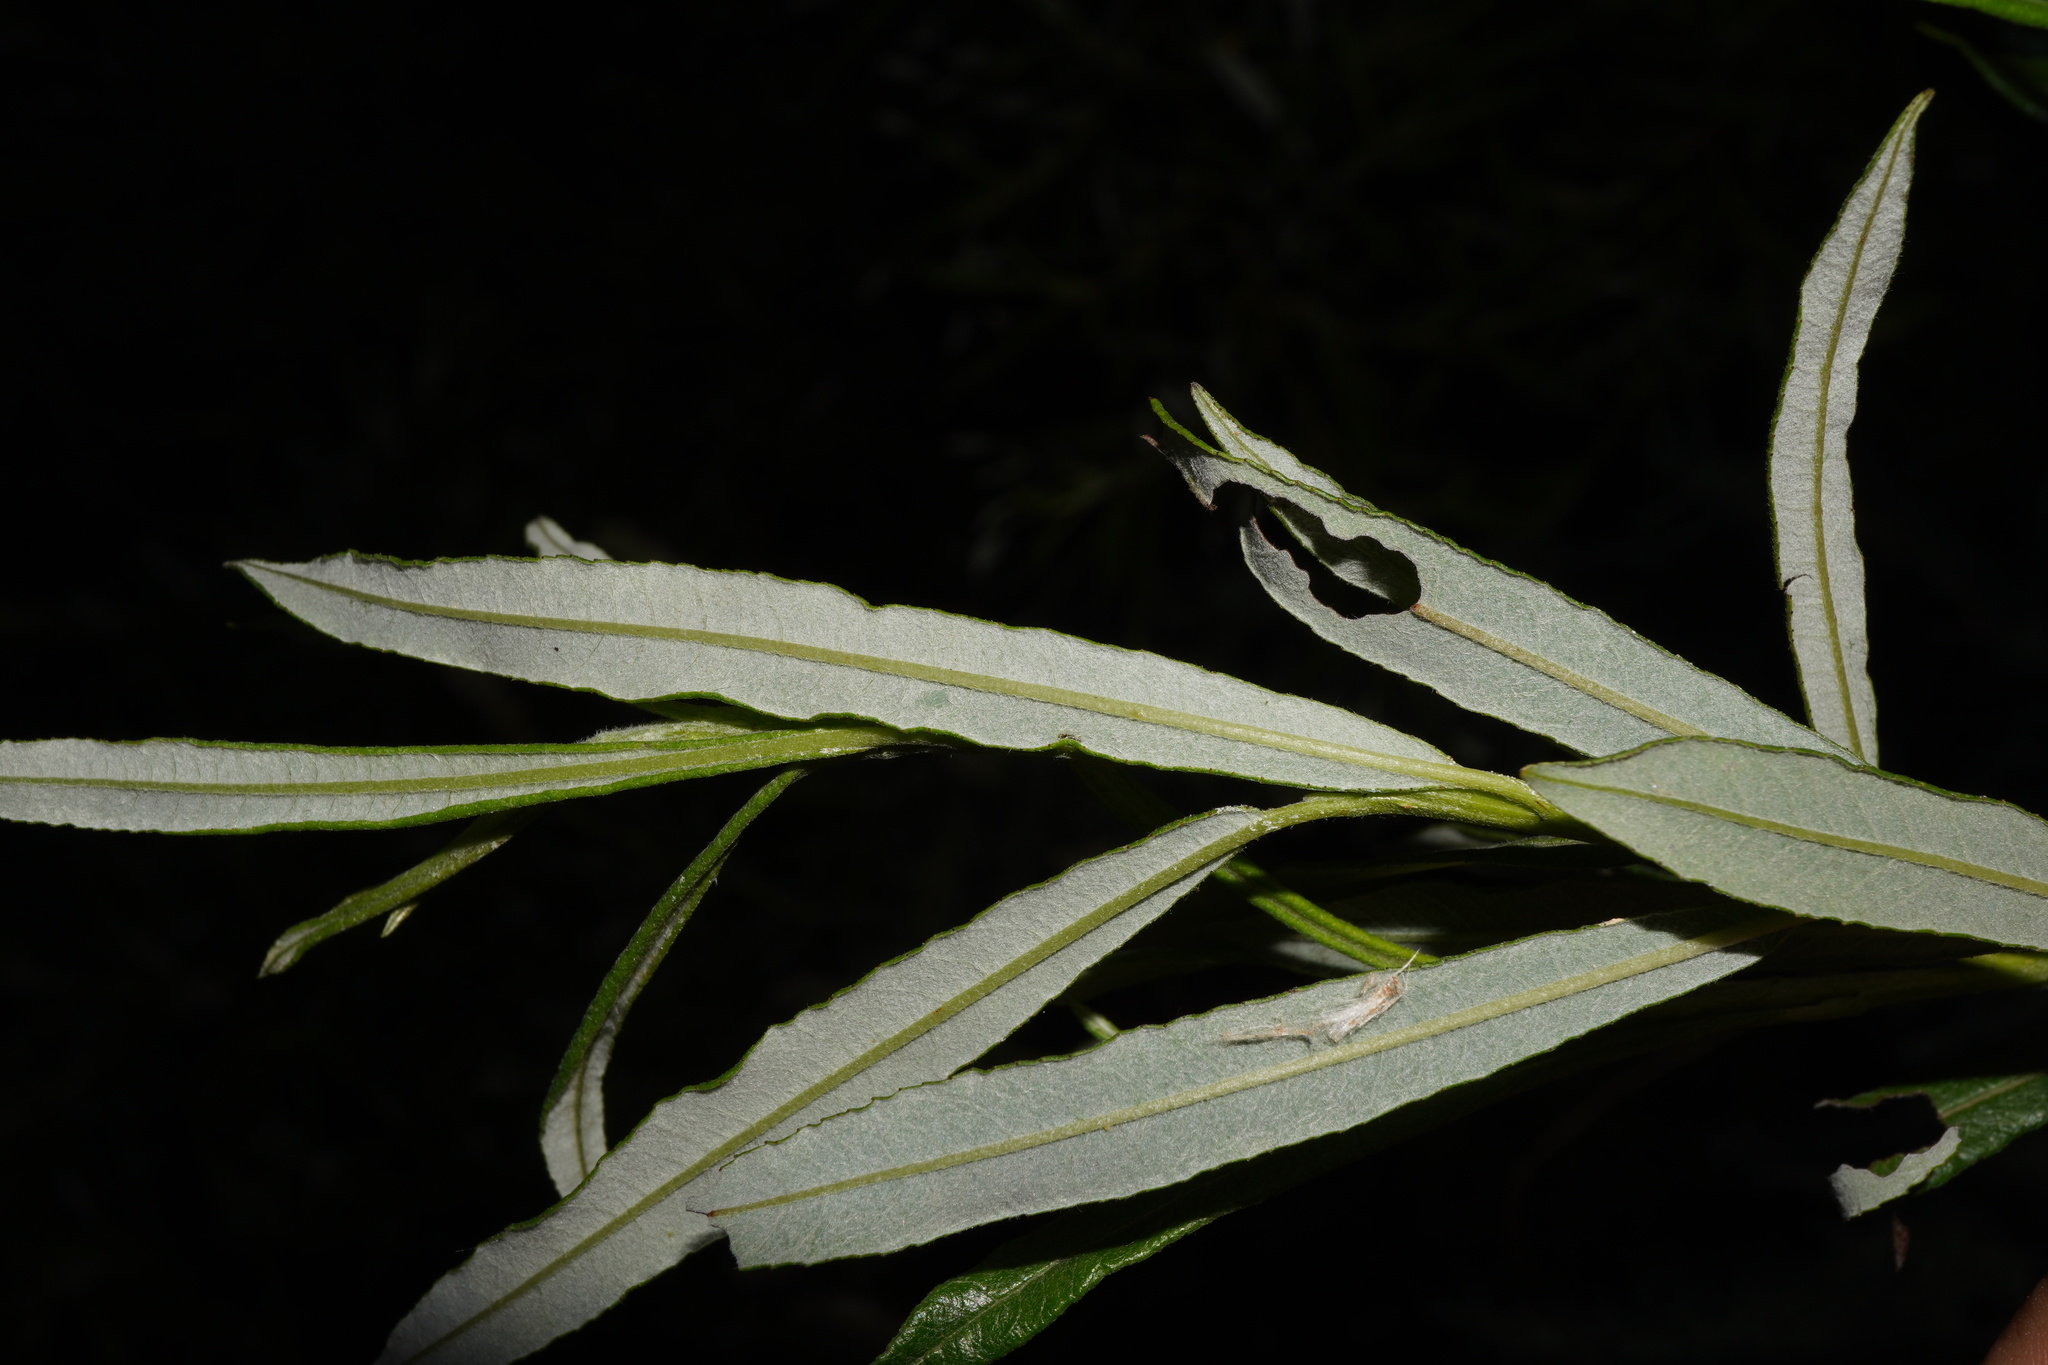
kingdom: Plantae
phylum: Tracheophyta
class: Magnoliopsida
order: Malpighiales
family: Salicaceae
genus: Salix
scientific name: Salix eleagnos
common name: Elaeagnus willow
